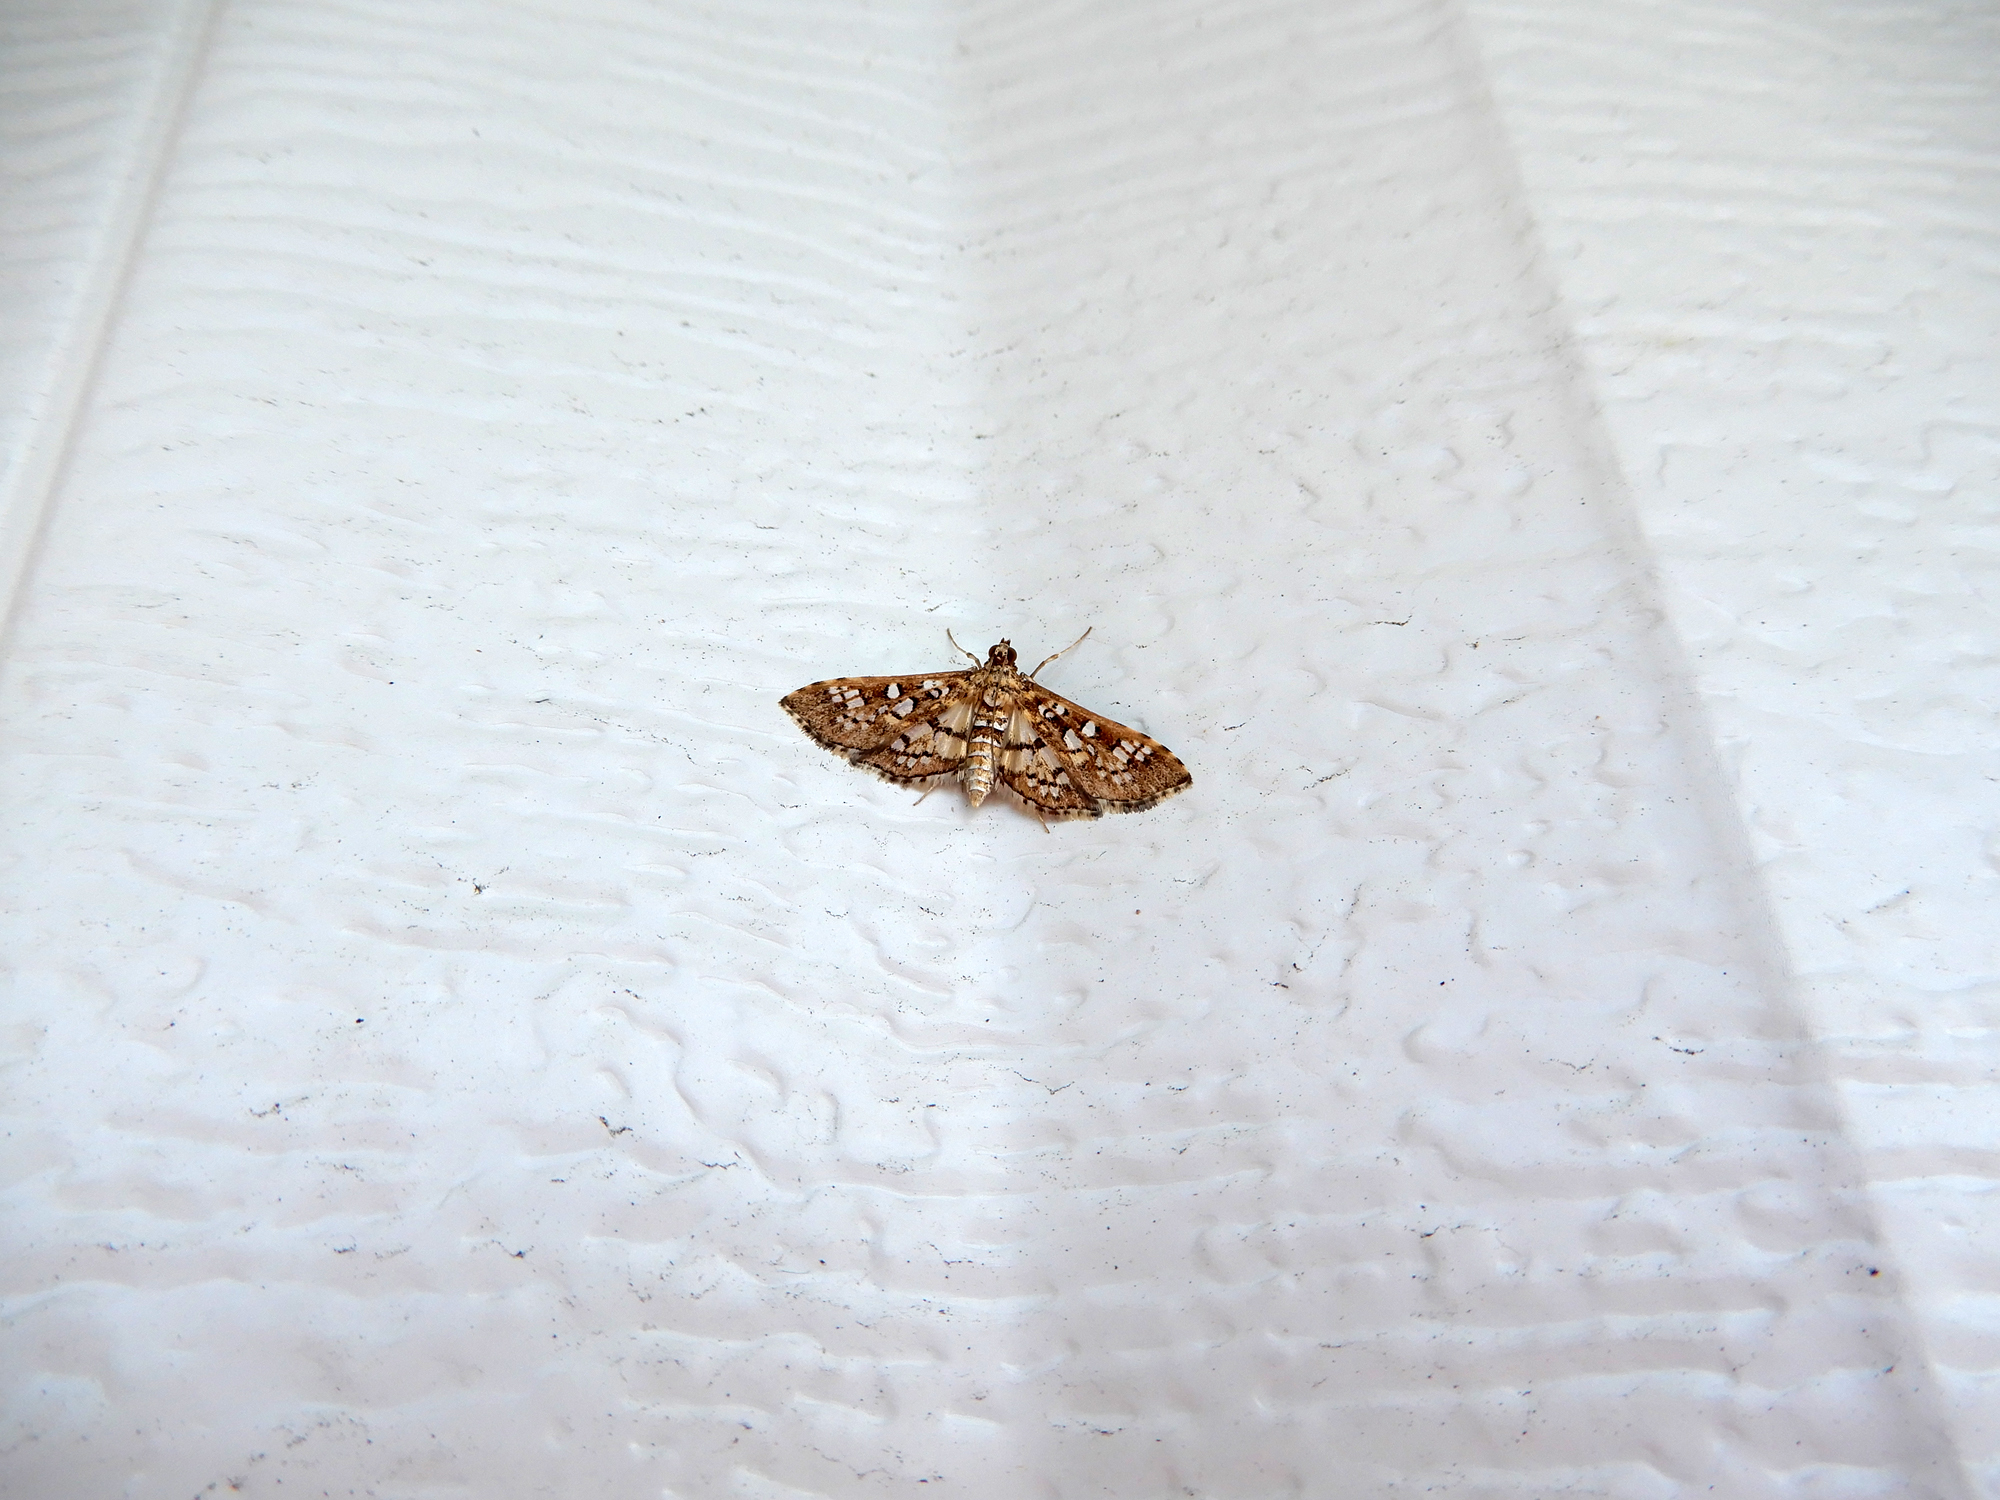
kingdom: Animalia
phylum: Arthropoda
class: Insecta
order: Lepidoptera
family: Crambidae
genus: Samea
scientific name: Samea ecclesialis
